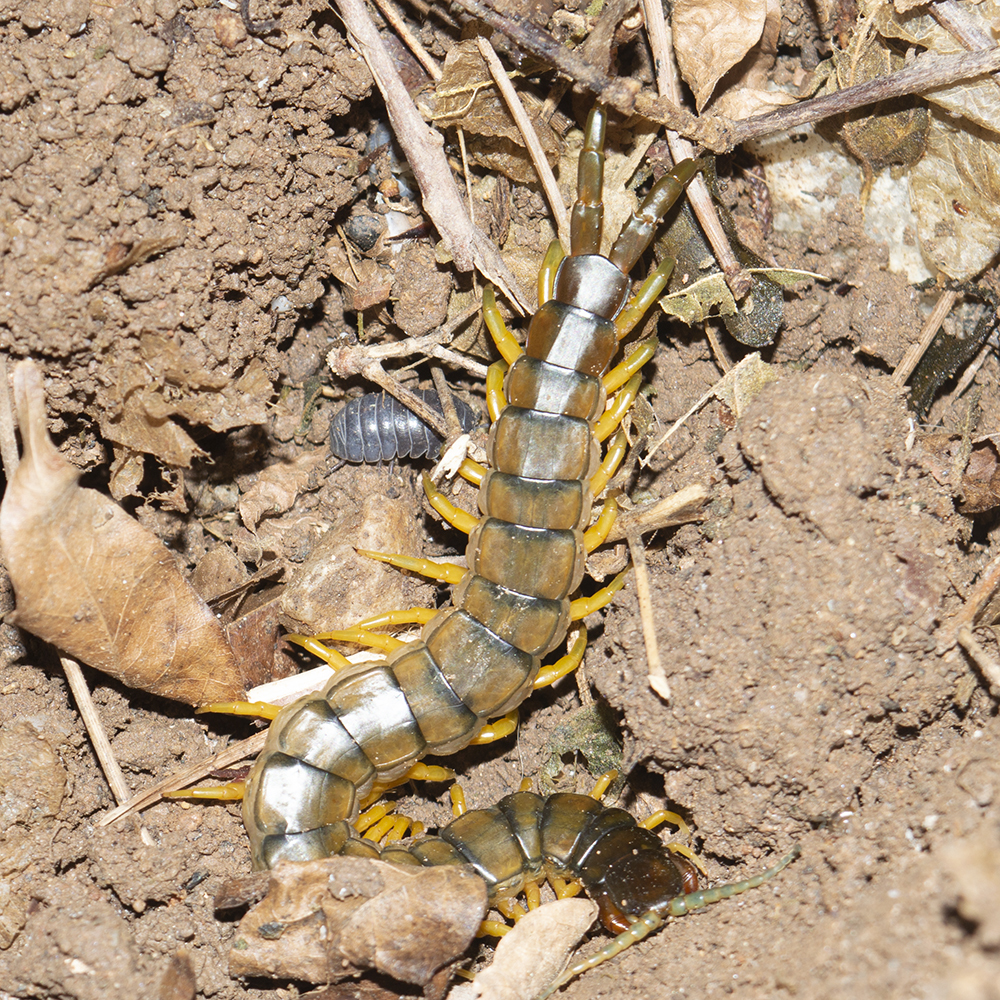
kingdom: Animalia
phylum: Arthropoda
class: Chilopoda
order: Scolopendromorpha
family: Scolopendridae
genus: Scolopendra
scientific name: Scolopendra cingulata
